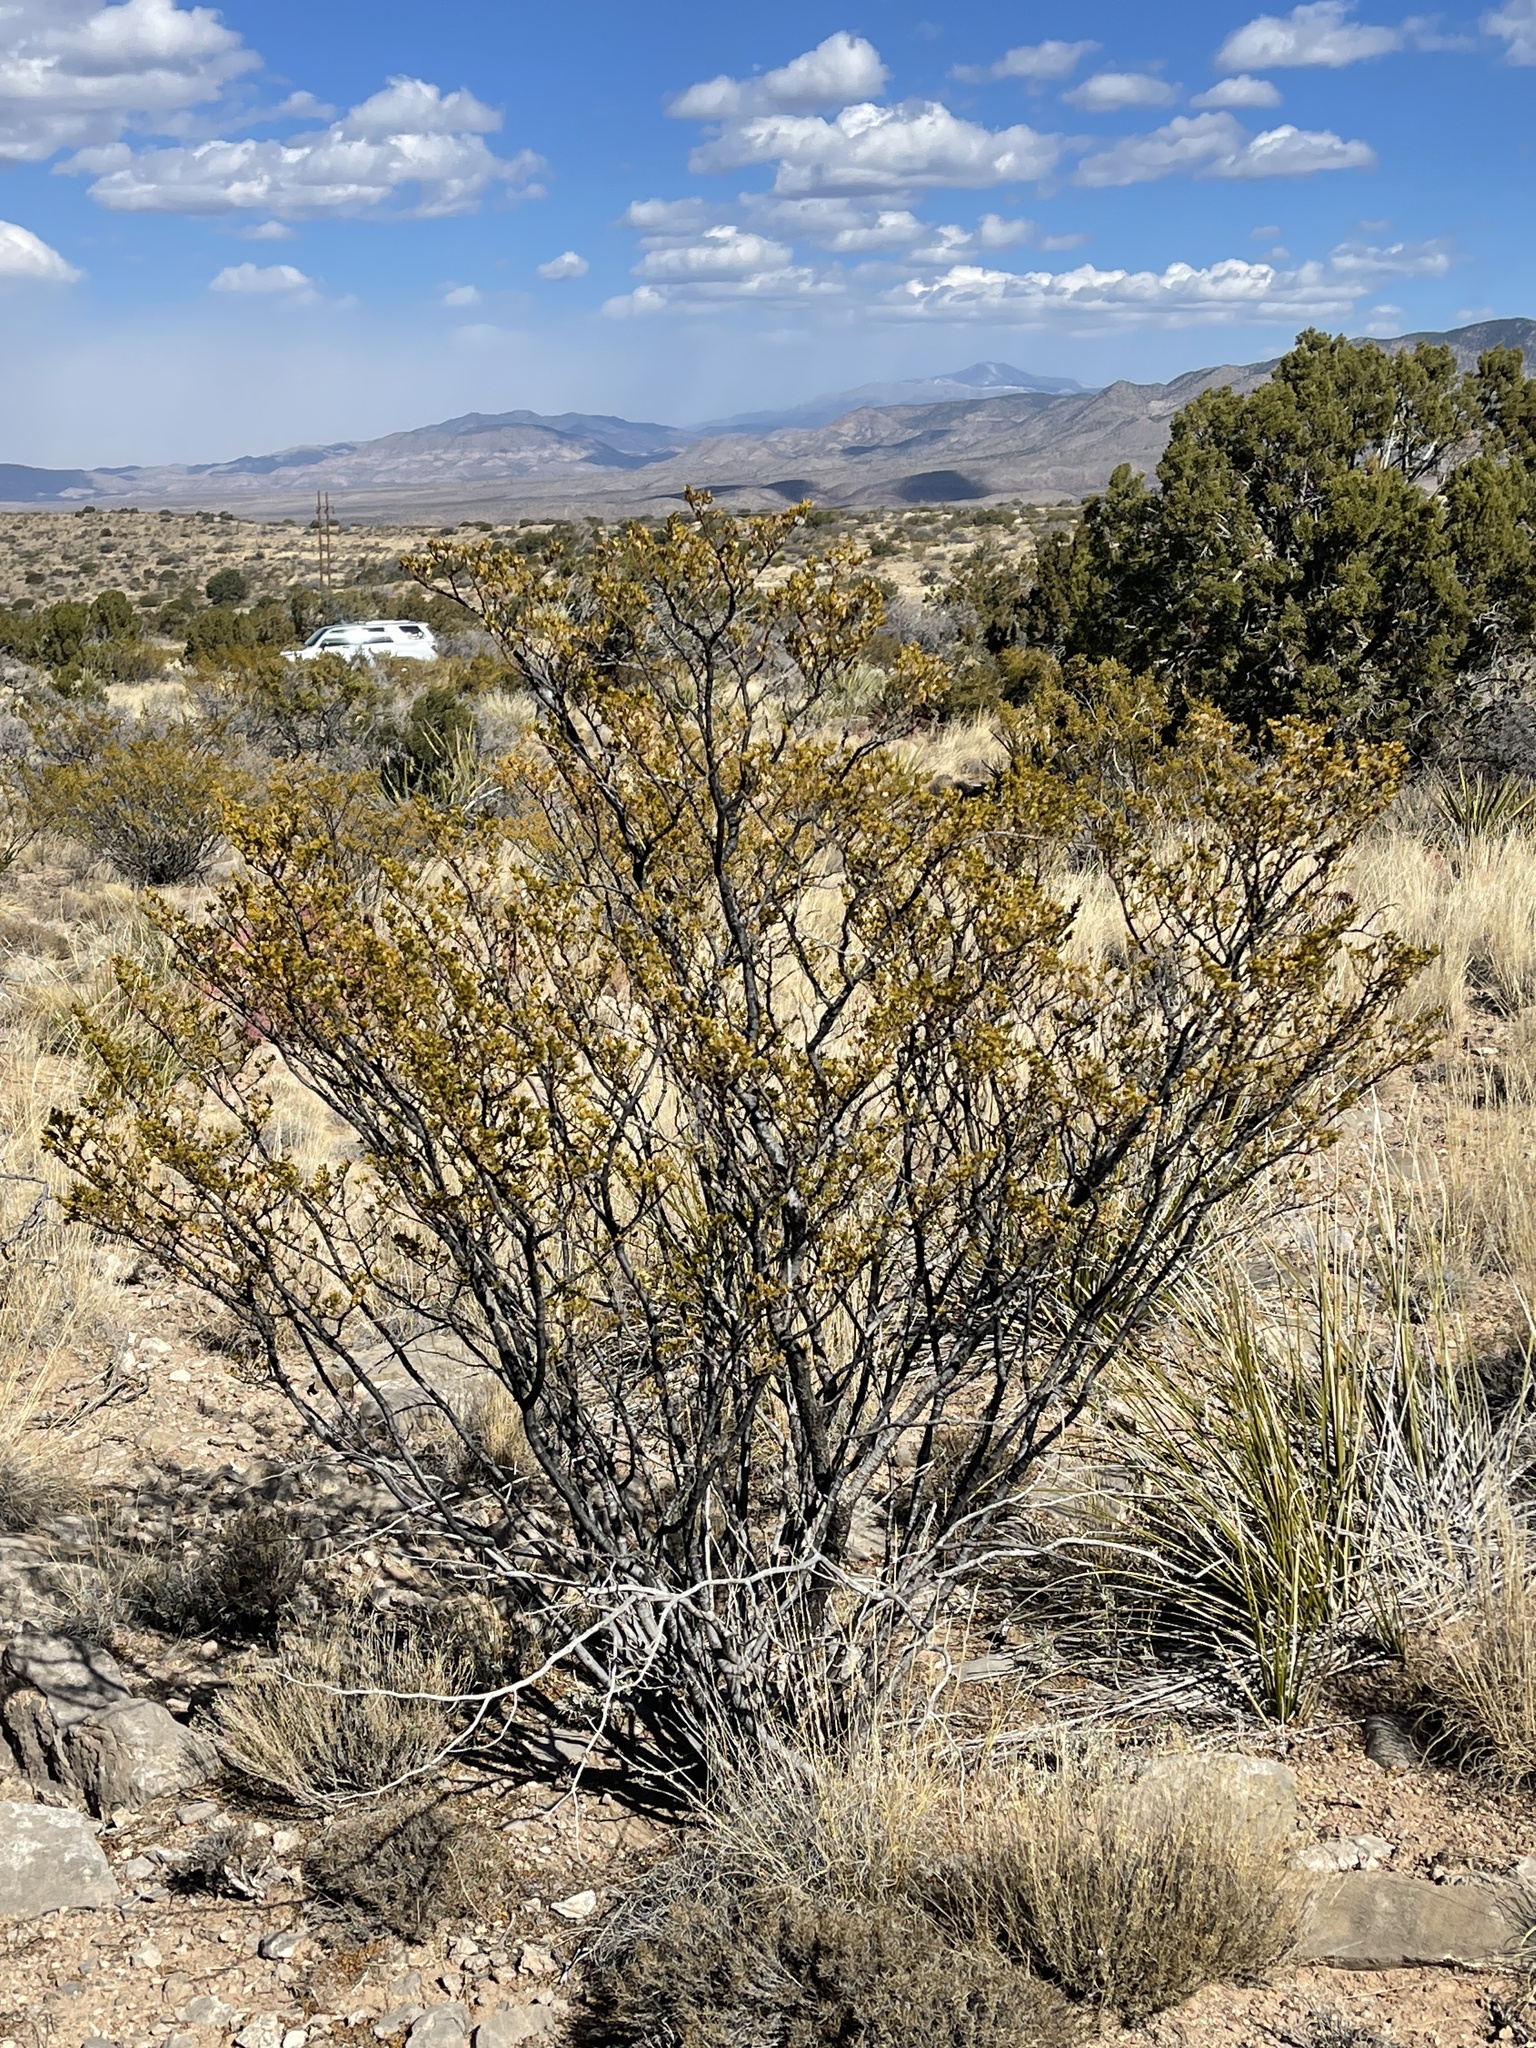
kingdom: Plantae
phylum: Tracheophyta
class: Magnoliopsida
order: Zygophyllales
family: Zygophyllaceae
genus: Larrea
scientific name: Larrea tridentata
